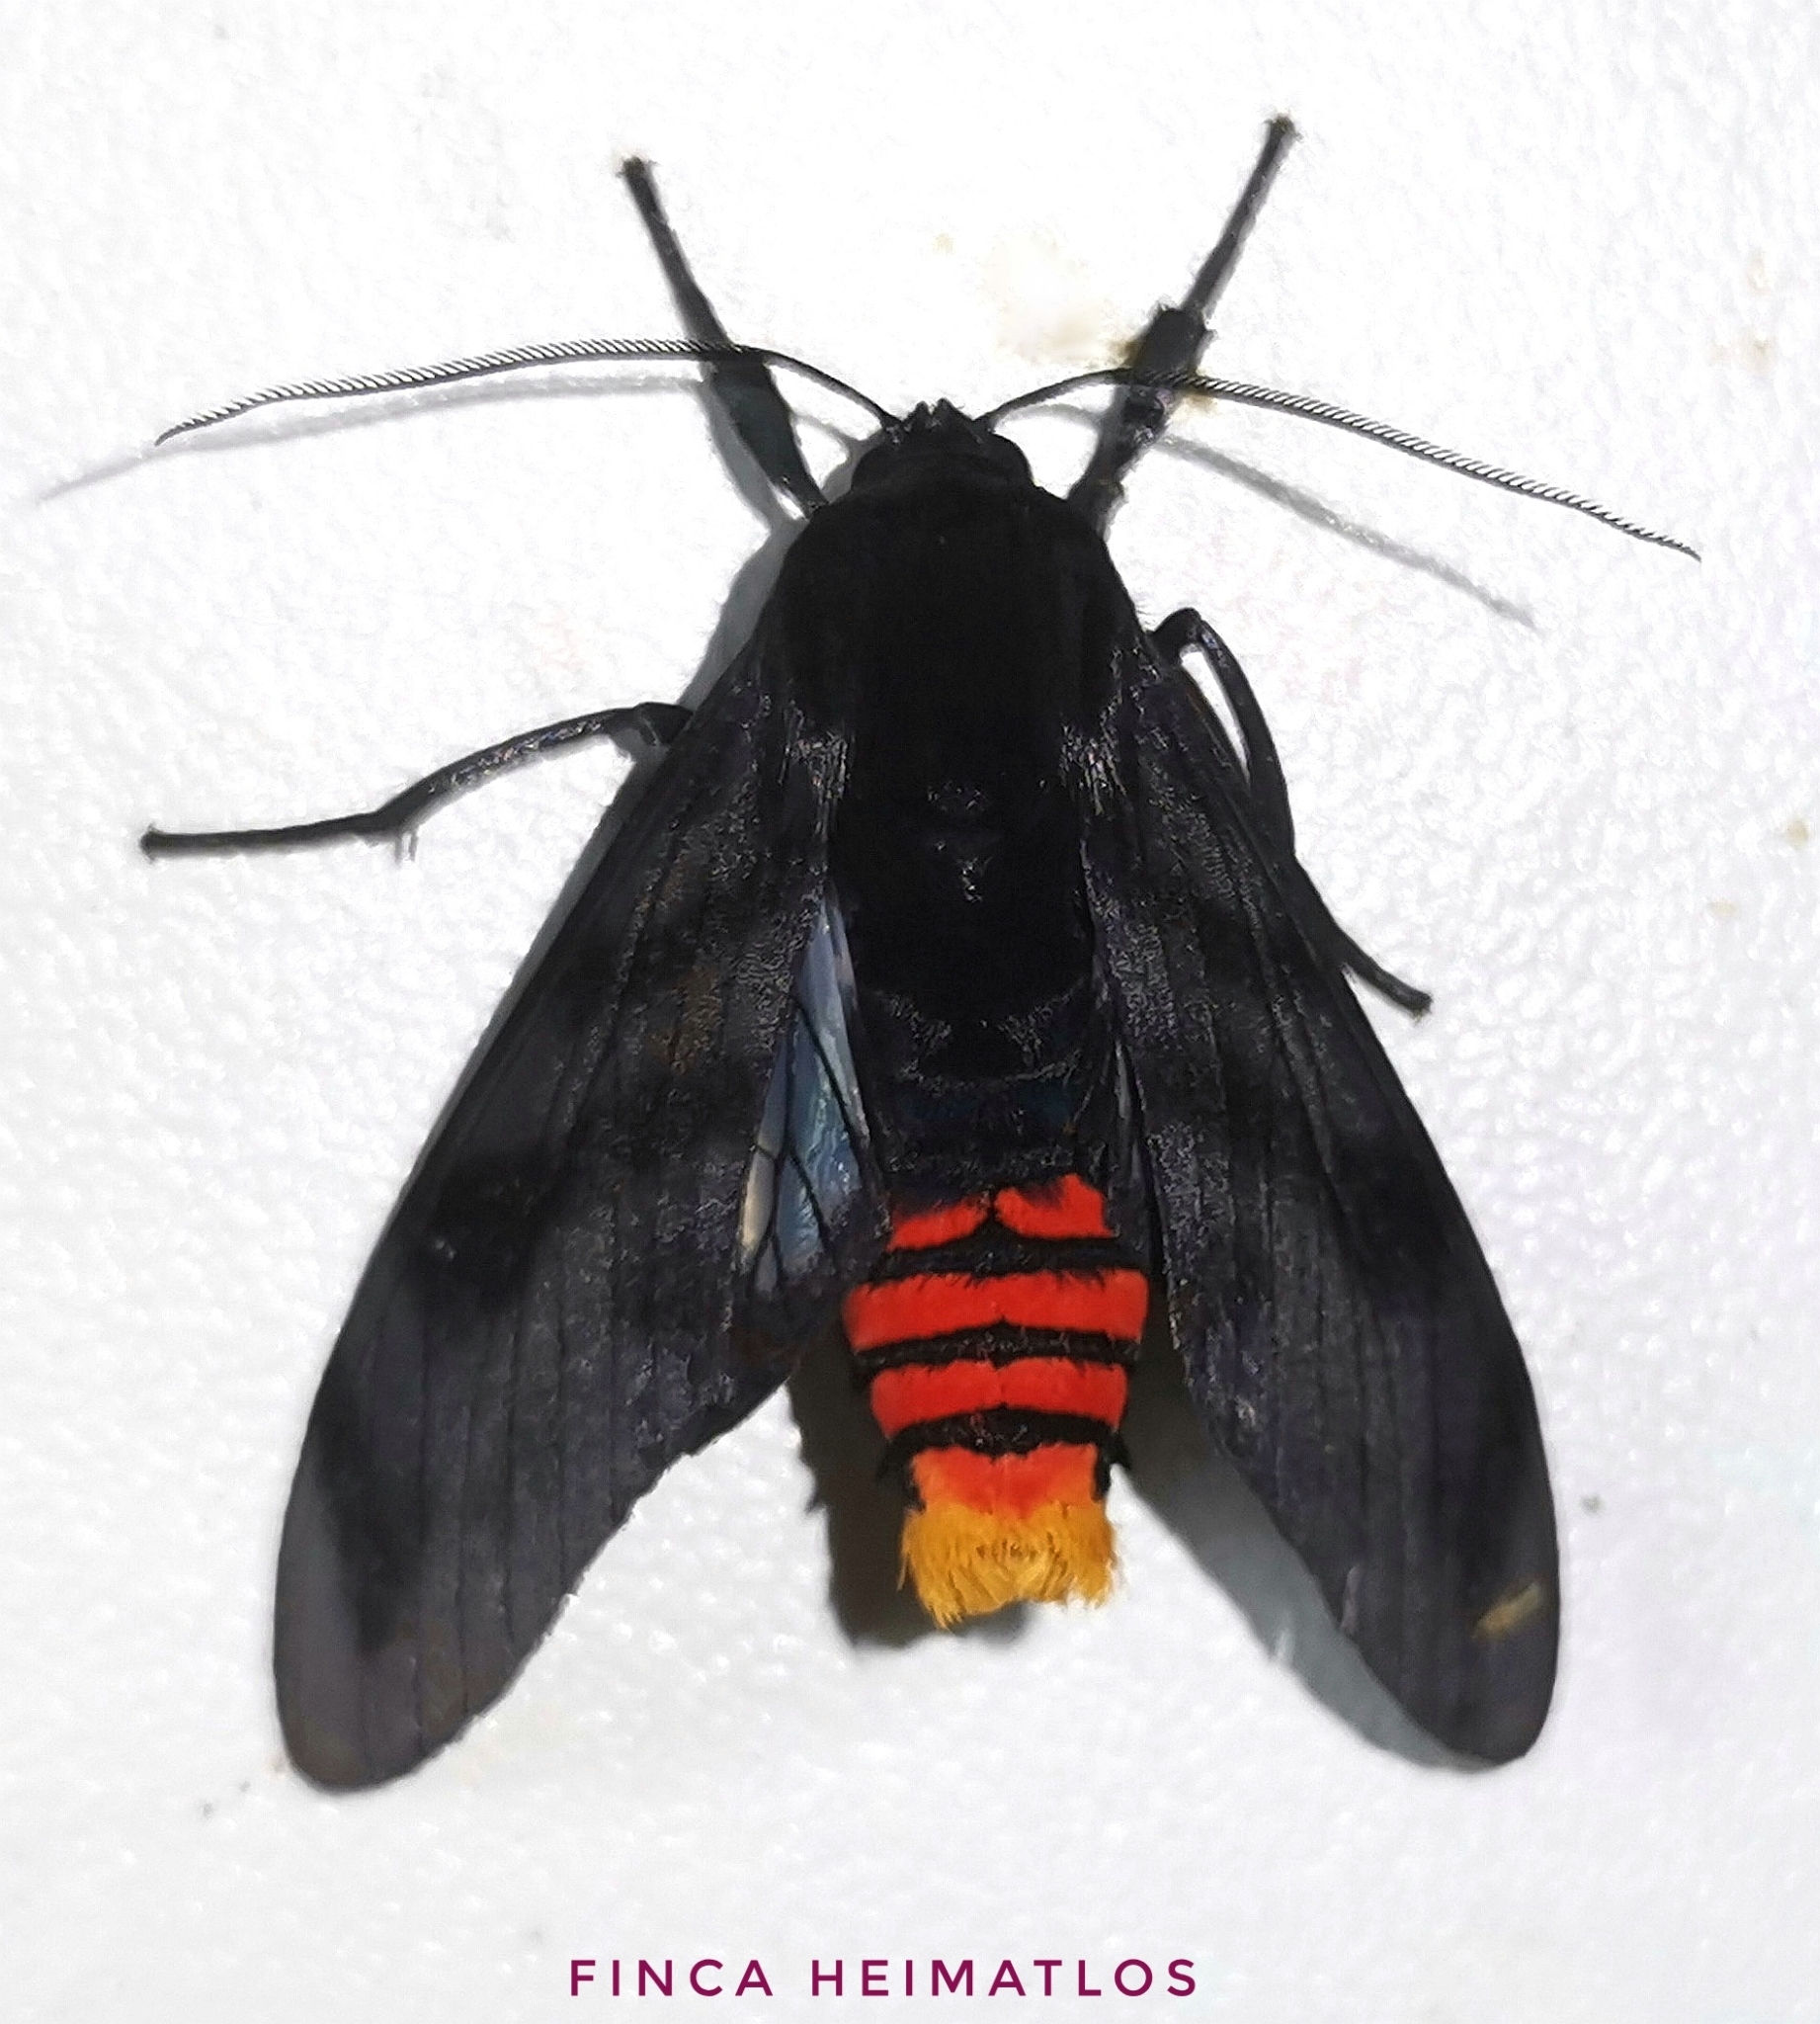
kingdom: Animalia
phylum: Arthropoda
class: Insecta
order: Lepidoptera
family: Erebidae
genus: Thysanoprymna
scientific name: Thysanoprymna cepiana
